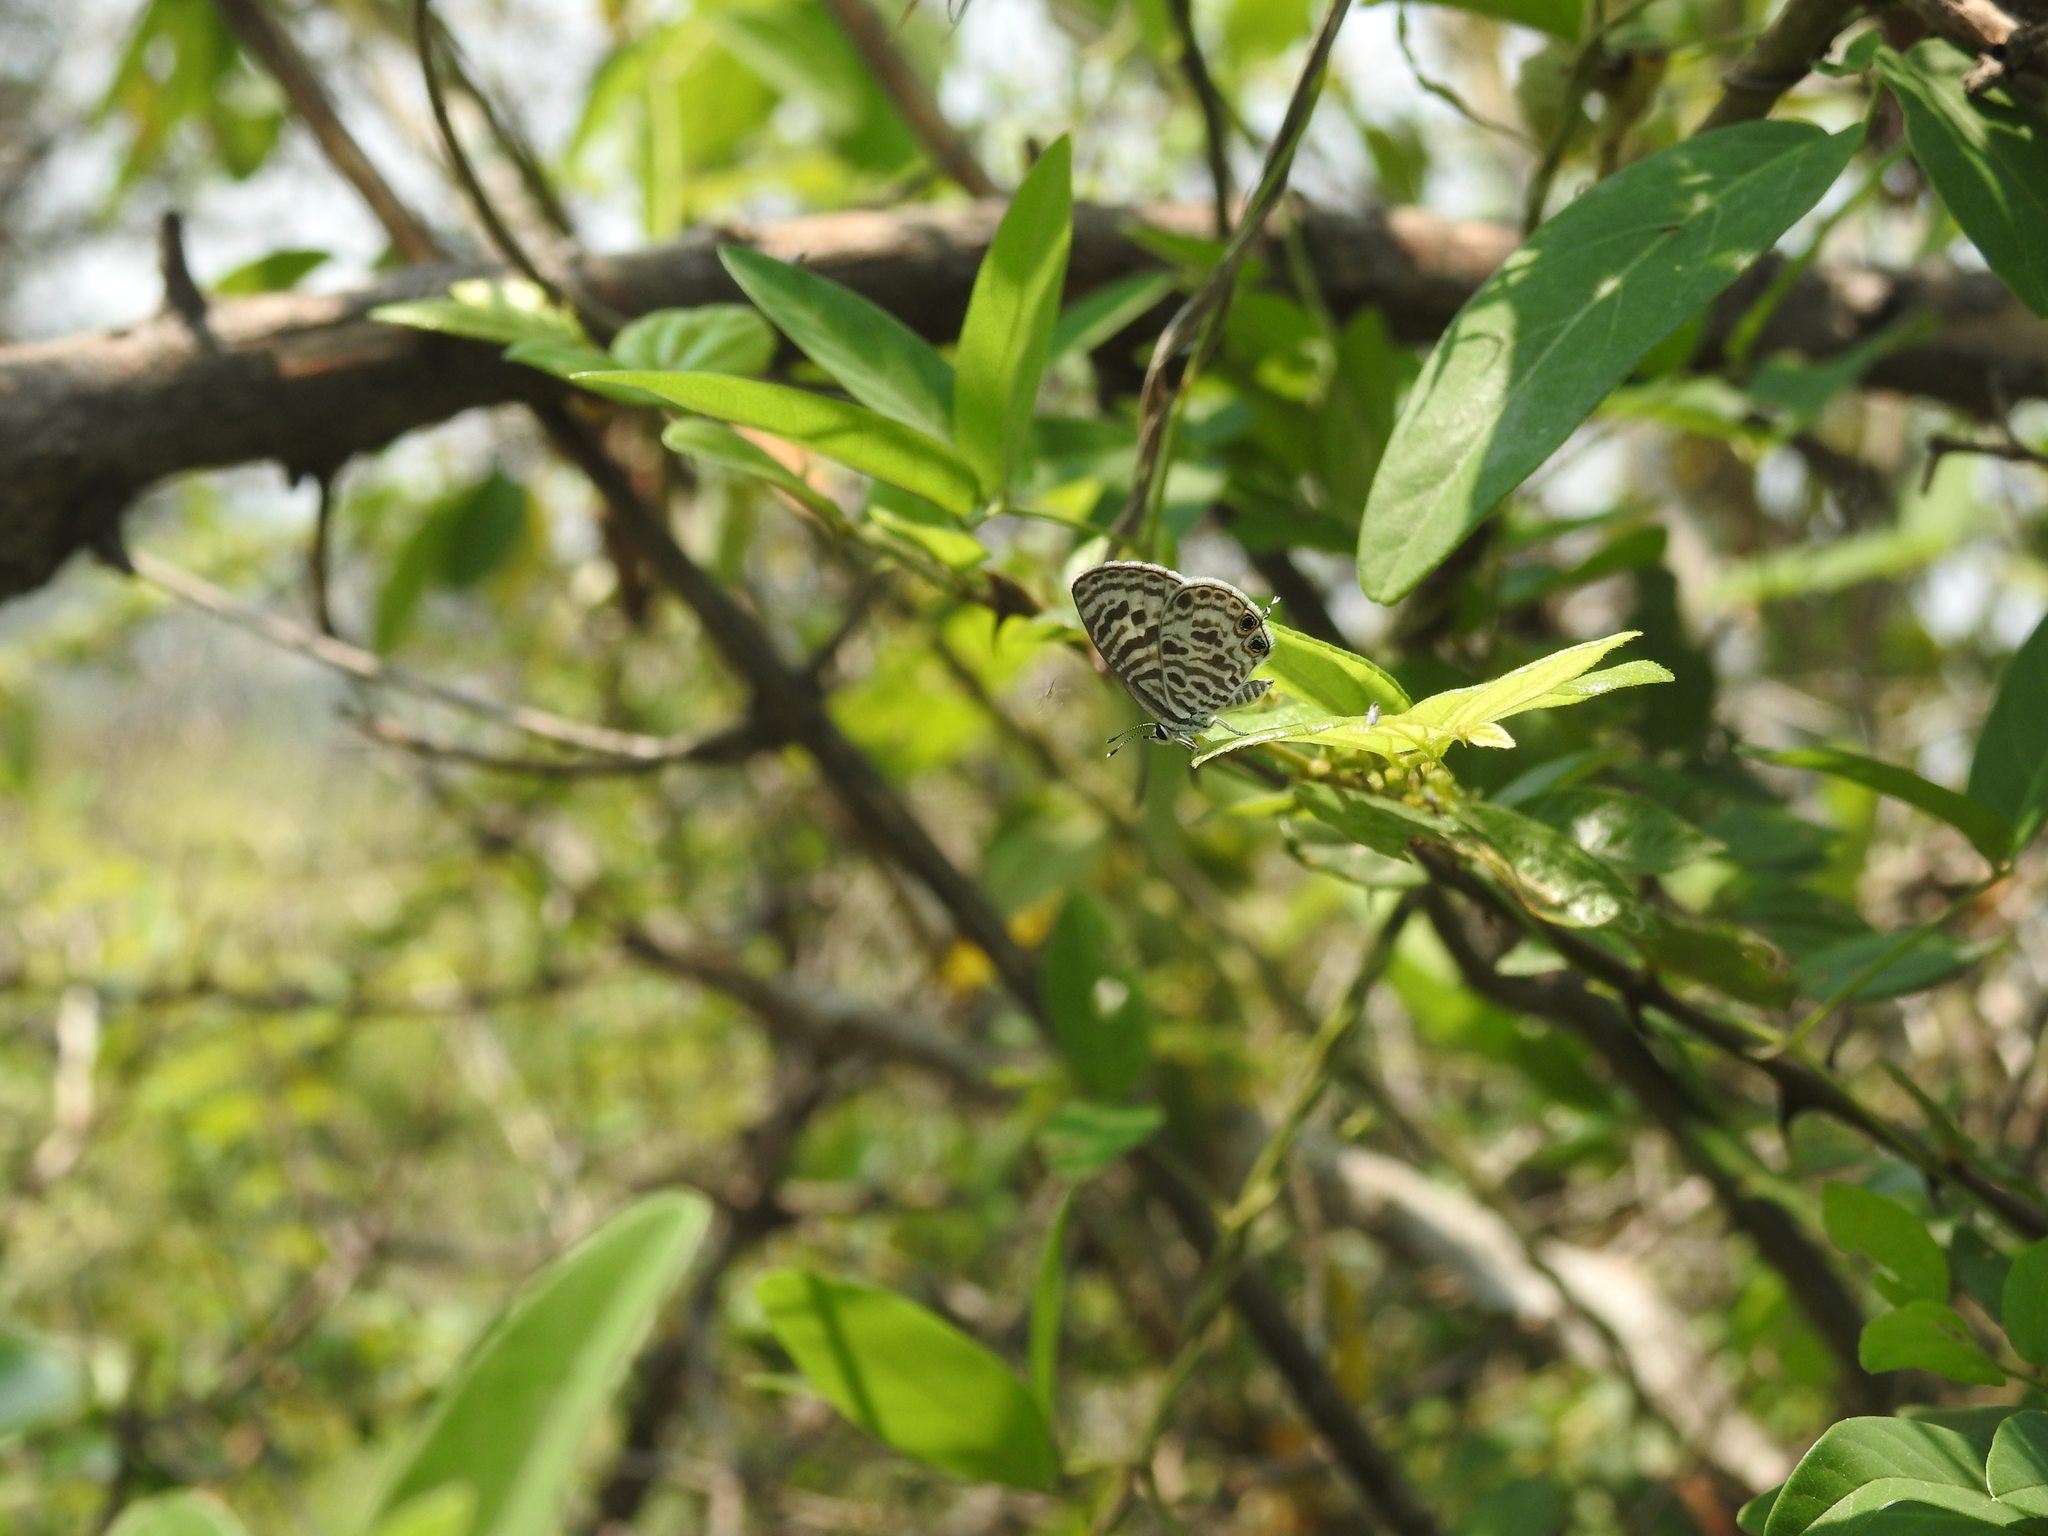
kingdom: Animalia
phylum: Arthropoda
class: Insecta
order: Lepidoptera
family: Lycaenidae
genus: Leptotes
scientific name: Leptotes plinius
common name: Zebra blue
